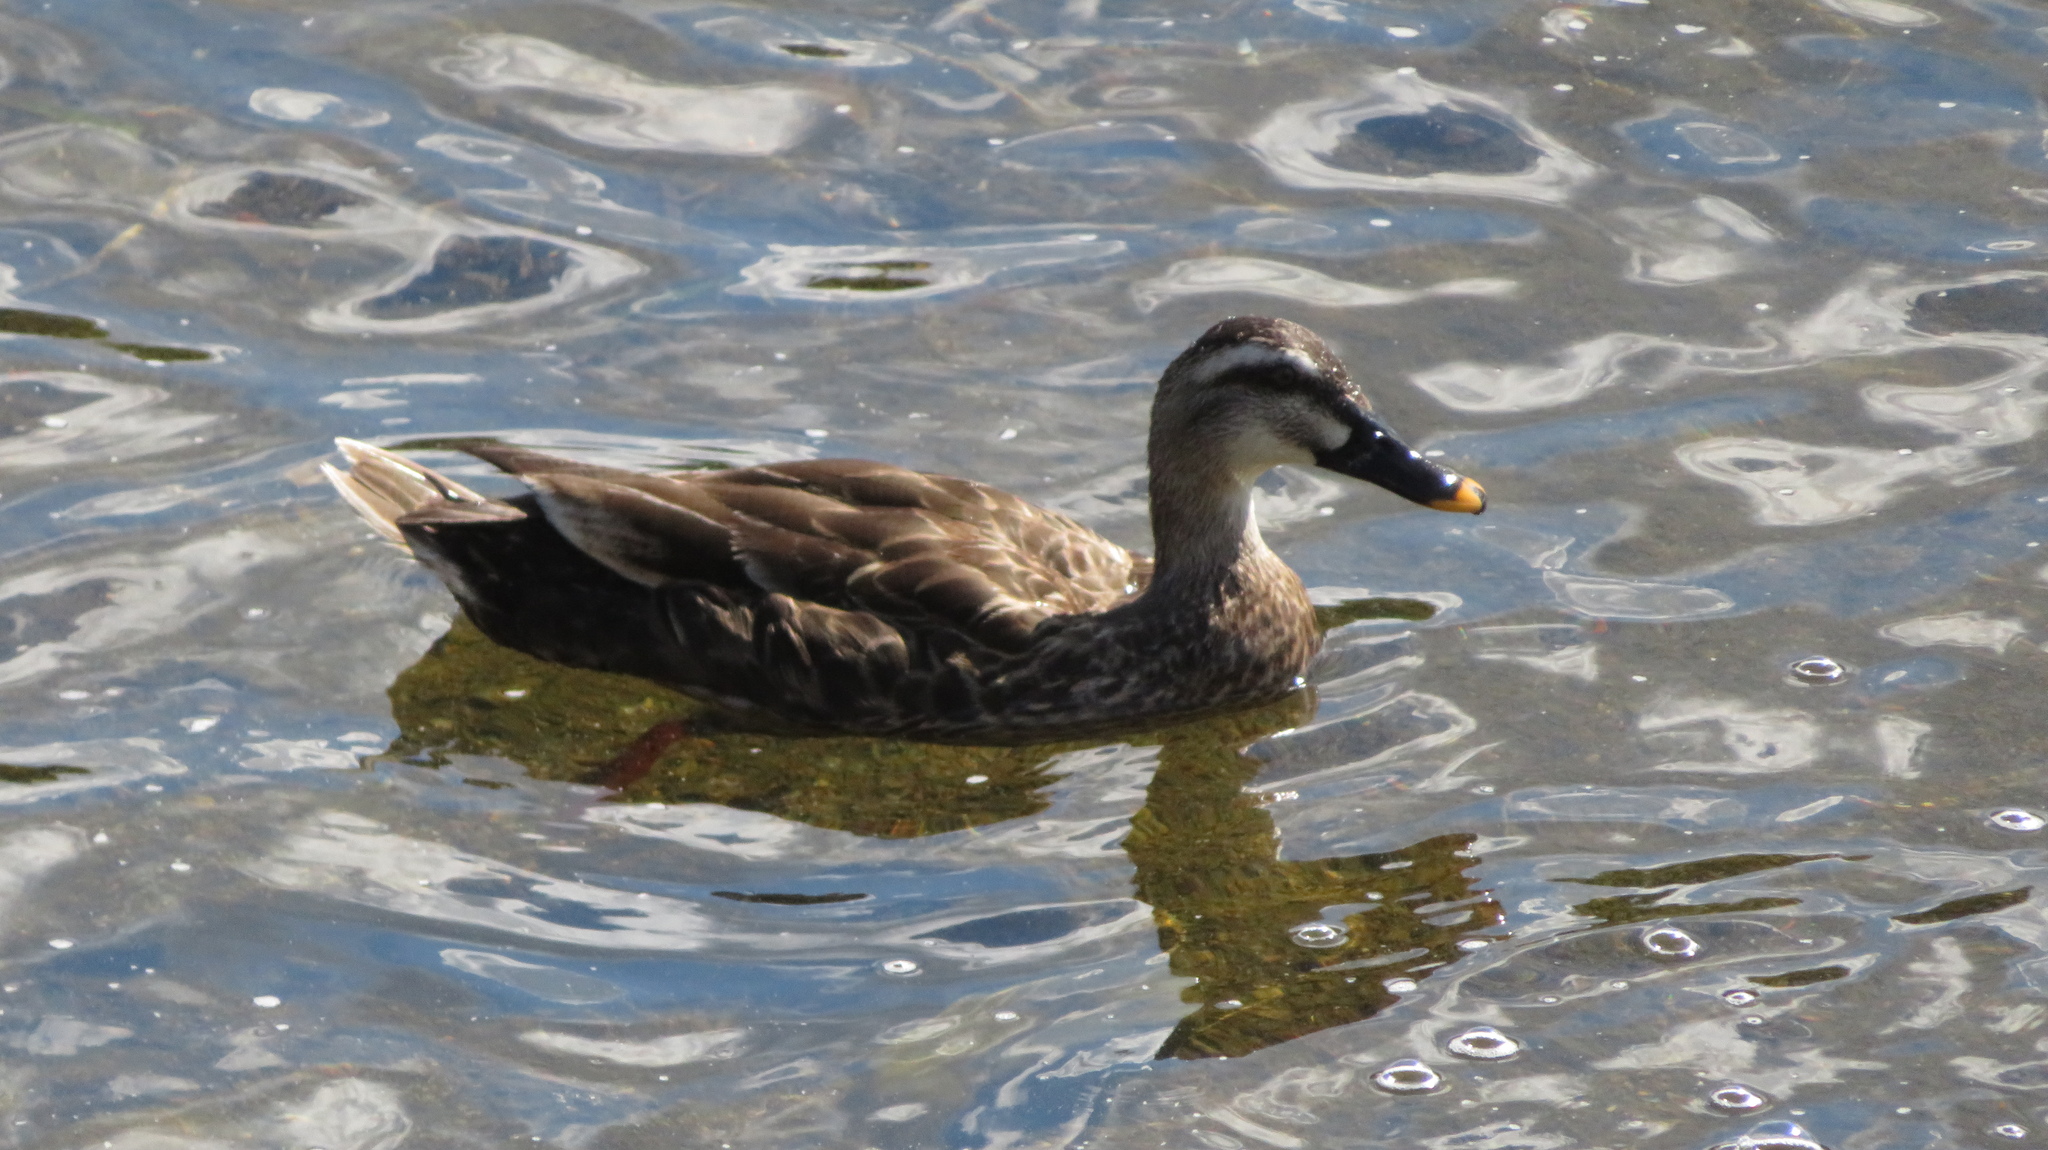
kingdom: Animalia
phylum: Chordata
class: Aves
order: Anseriformes
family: Anatidae
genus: Anas
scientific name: Anas zonorhyncha
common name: Eastern spot-billed duck
